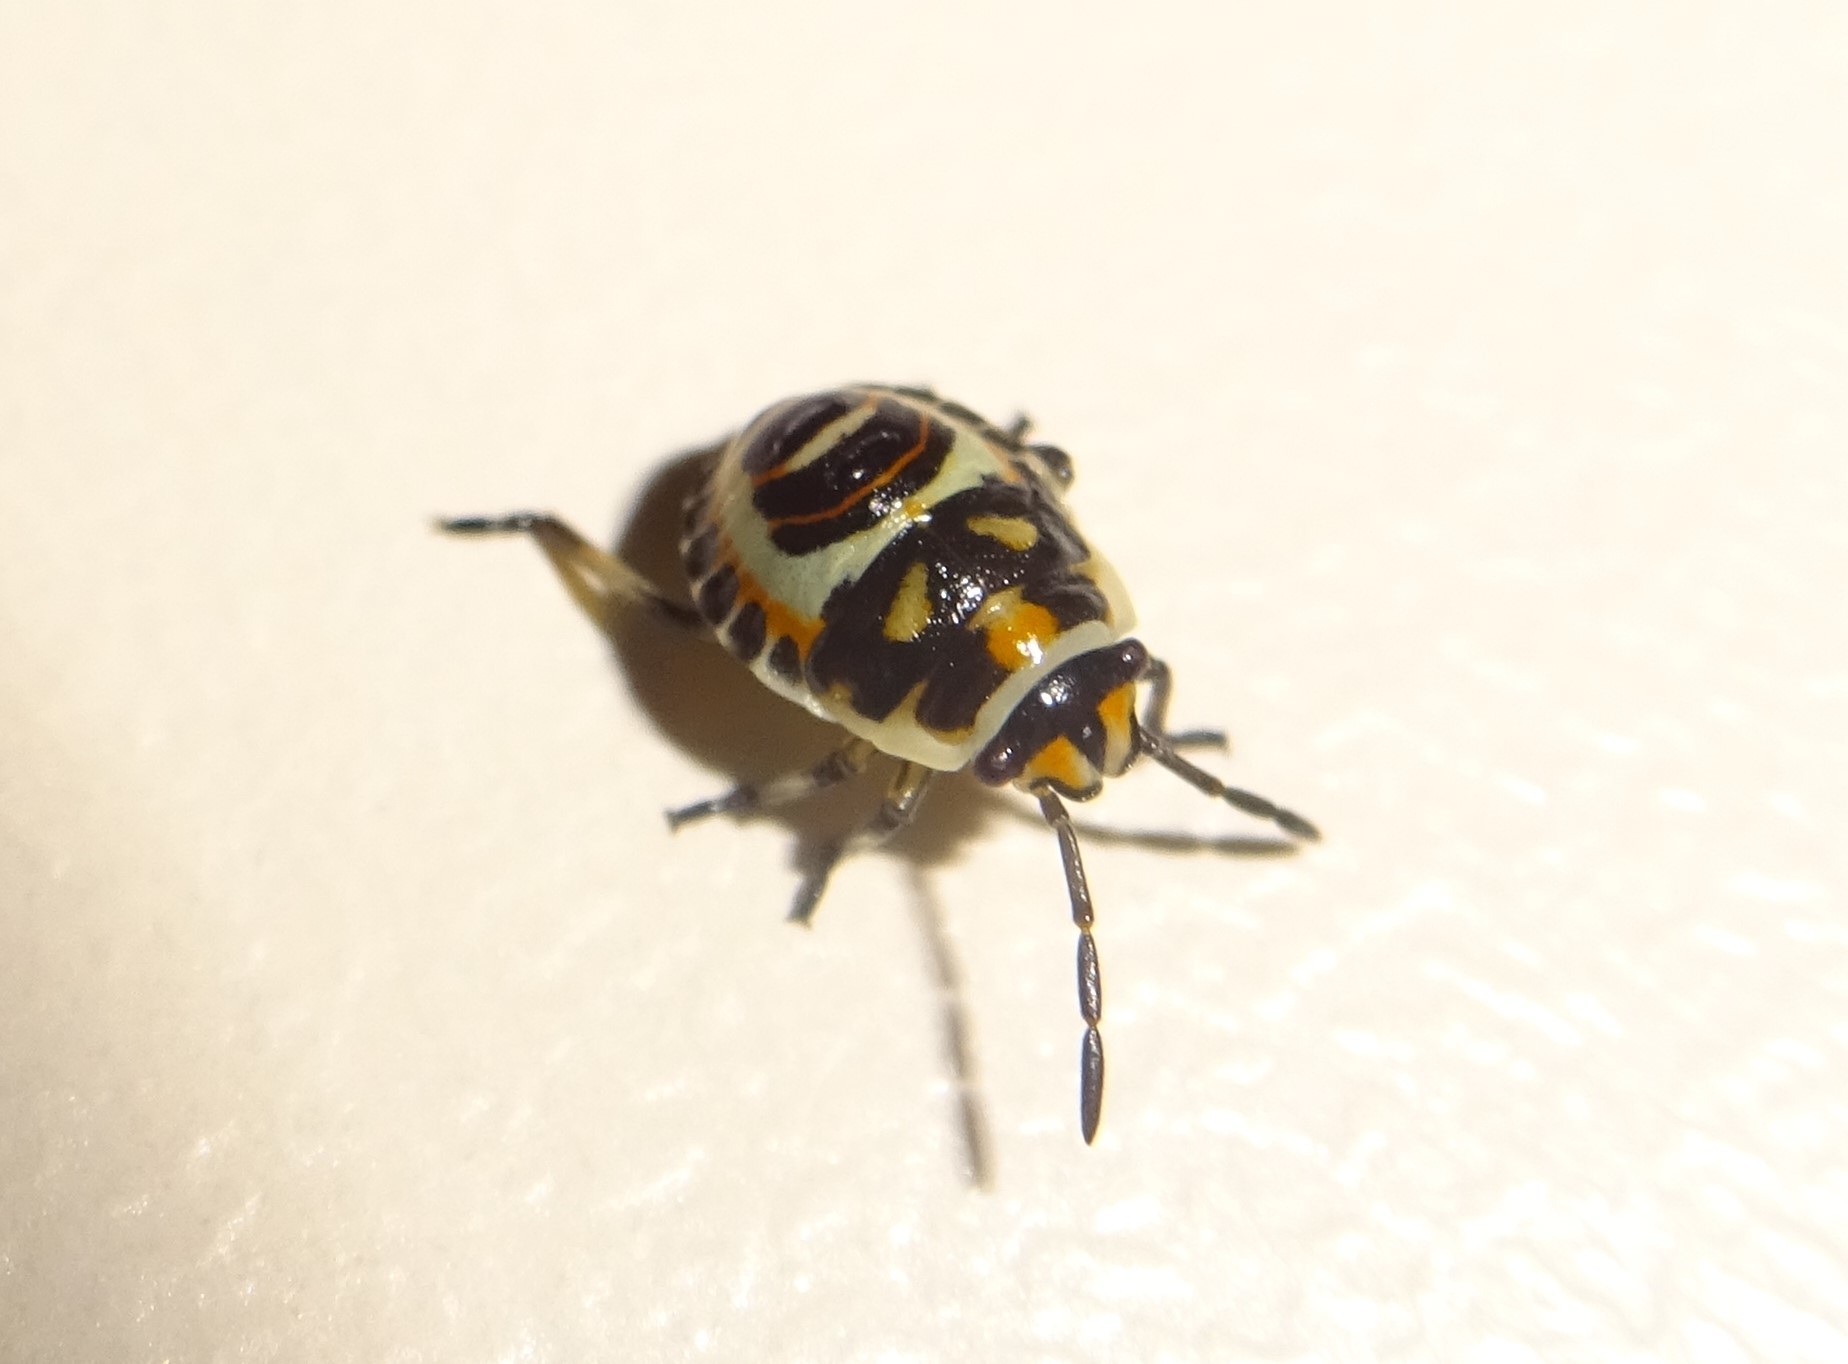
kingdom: Animalia
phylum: Arthropoda
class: Insecta
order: Hemiptera
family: Pentatomidae
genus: Eurydema
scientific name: Eurydema ornata
